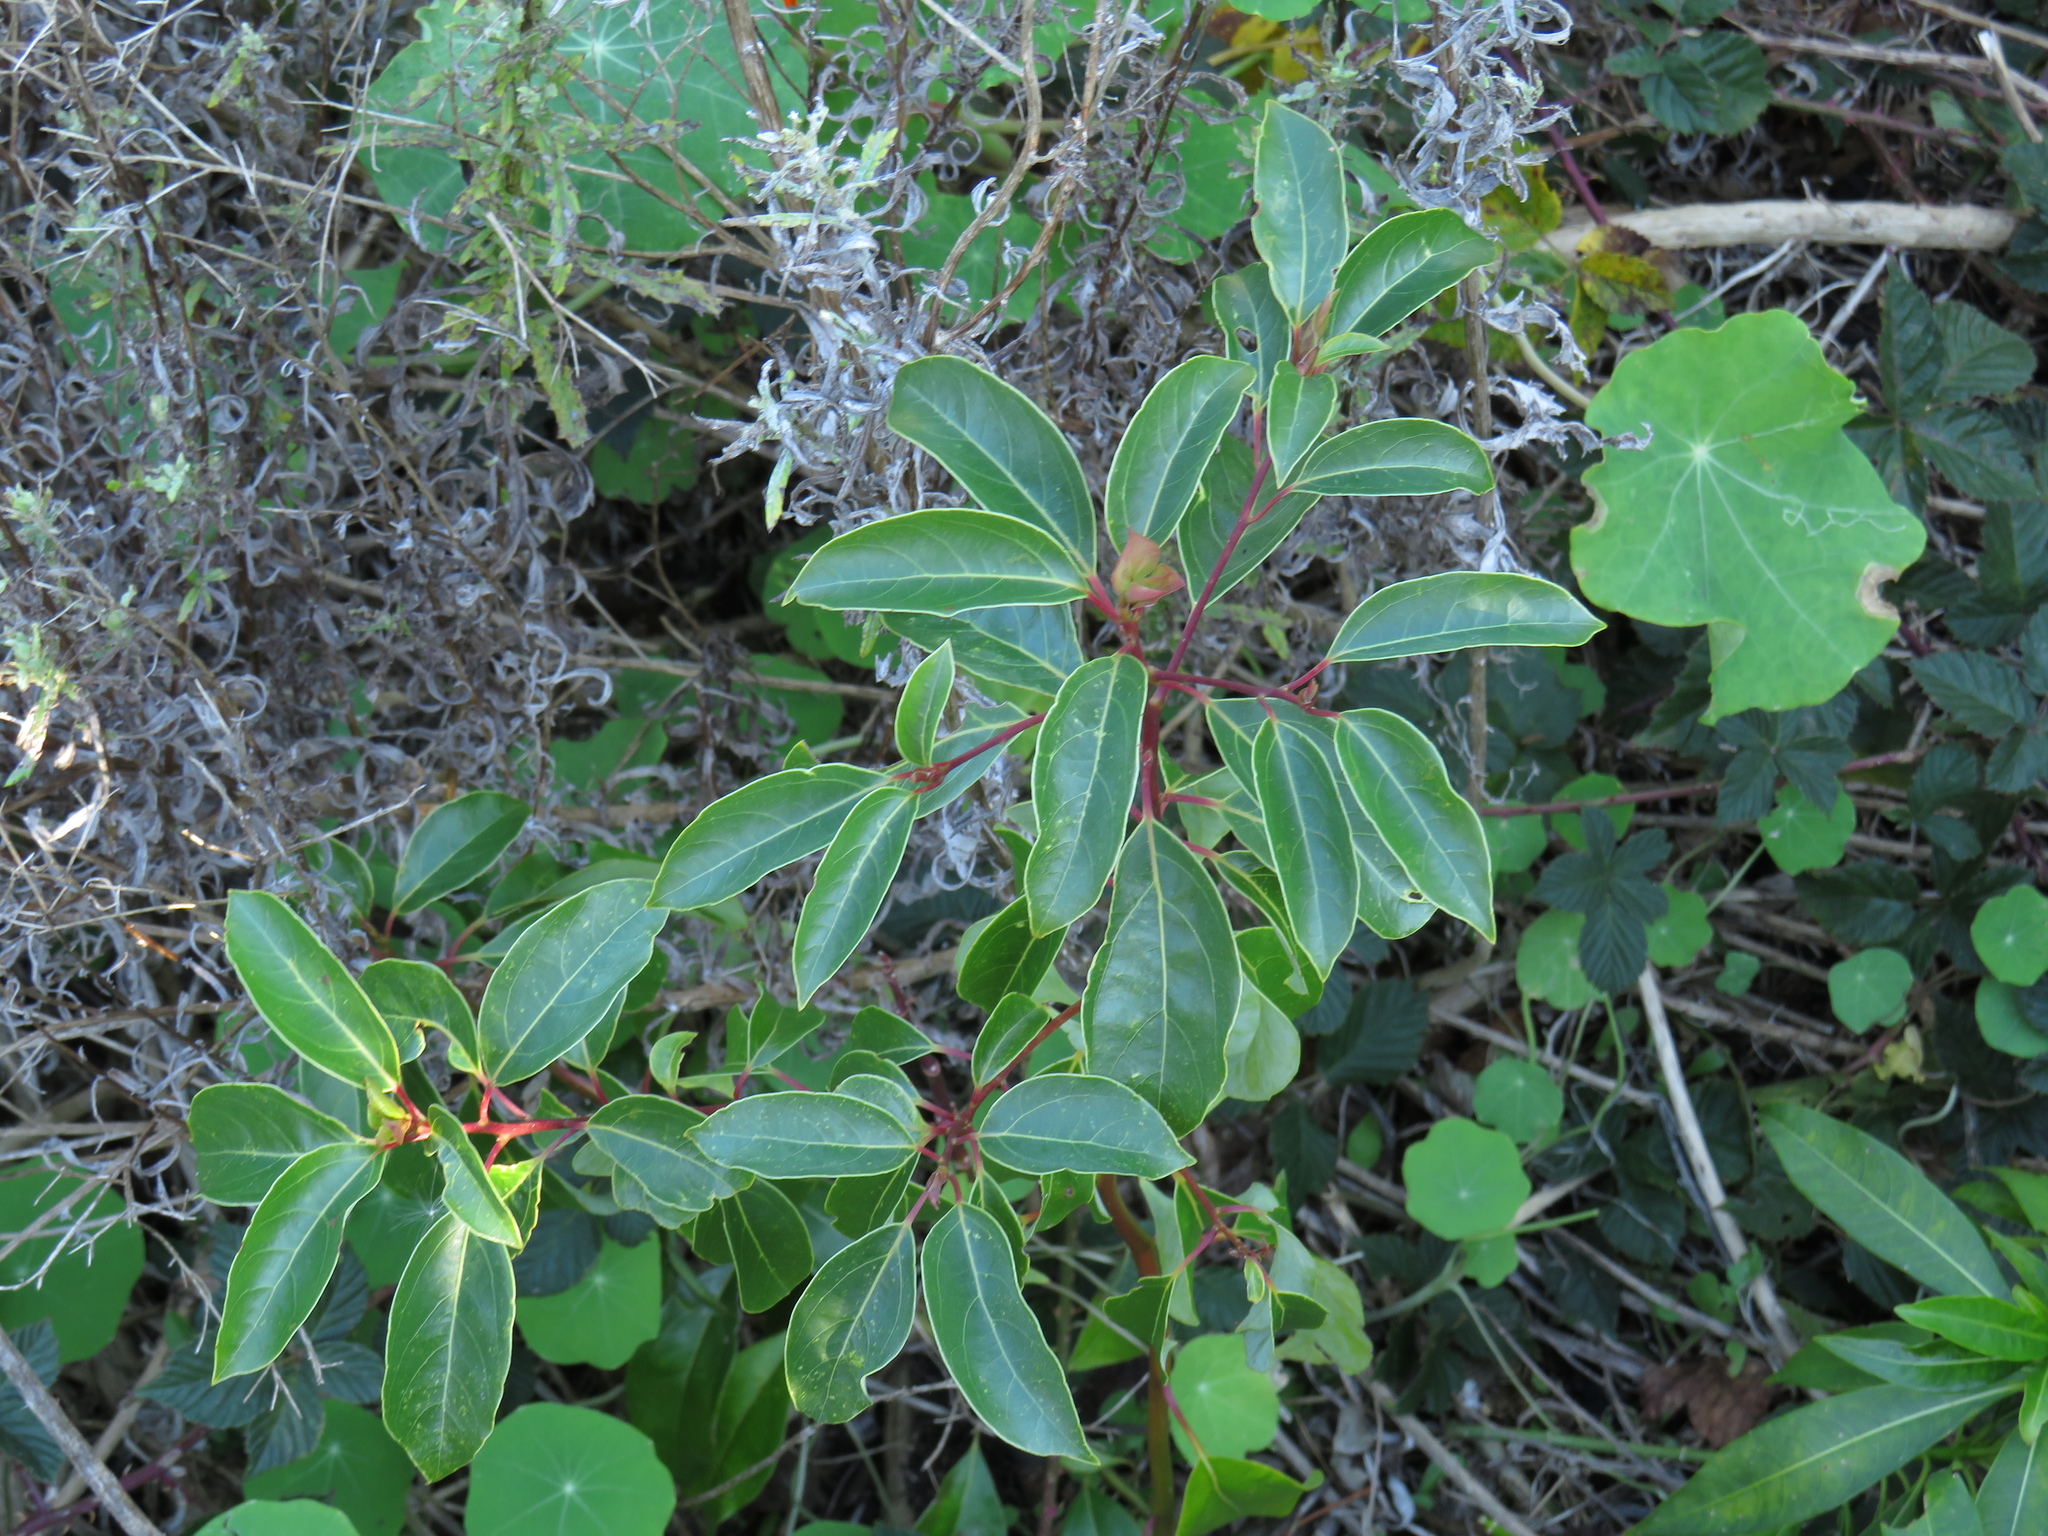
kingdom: Plantae
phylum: Tracheophyta
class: Magnoliopsida
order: Laurales
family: Lauraceae
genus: Cinnamomum
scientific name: Cinnamomum camphora
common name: Camphortree
